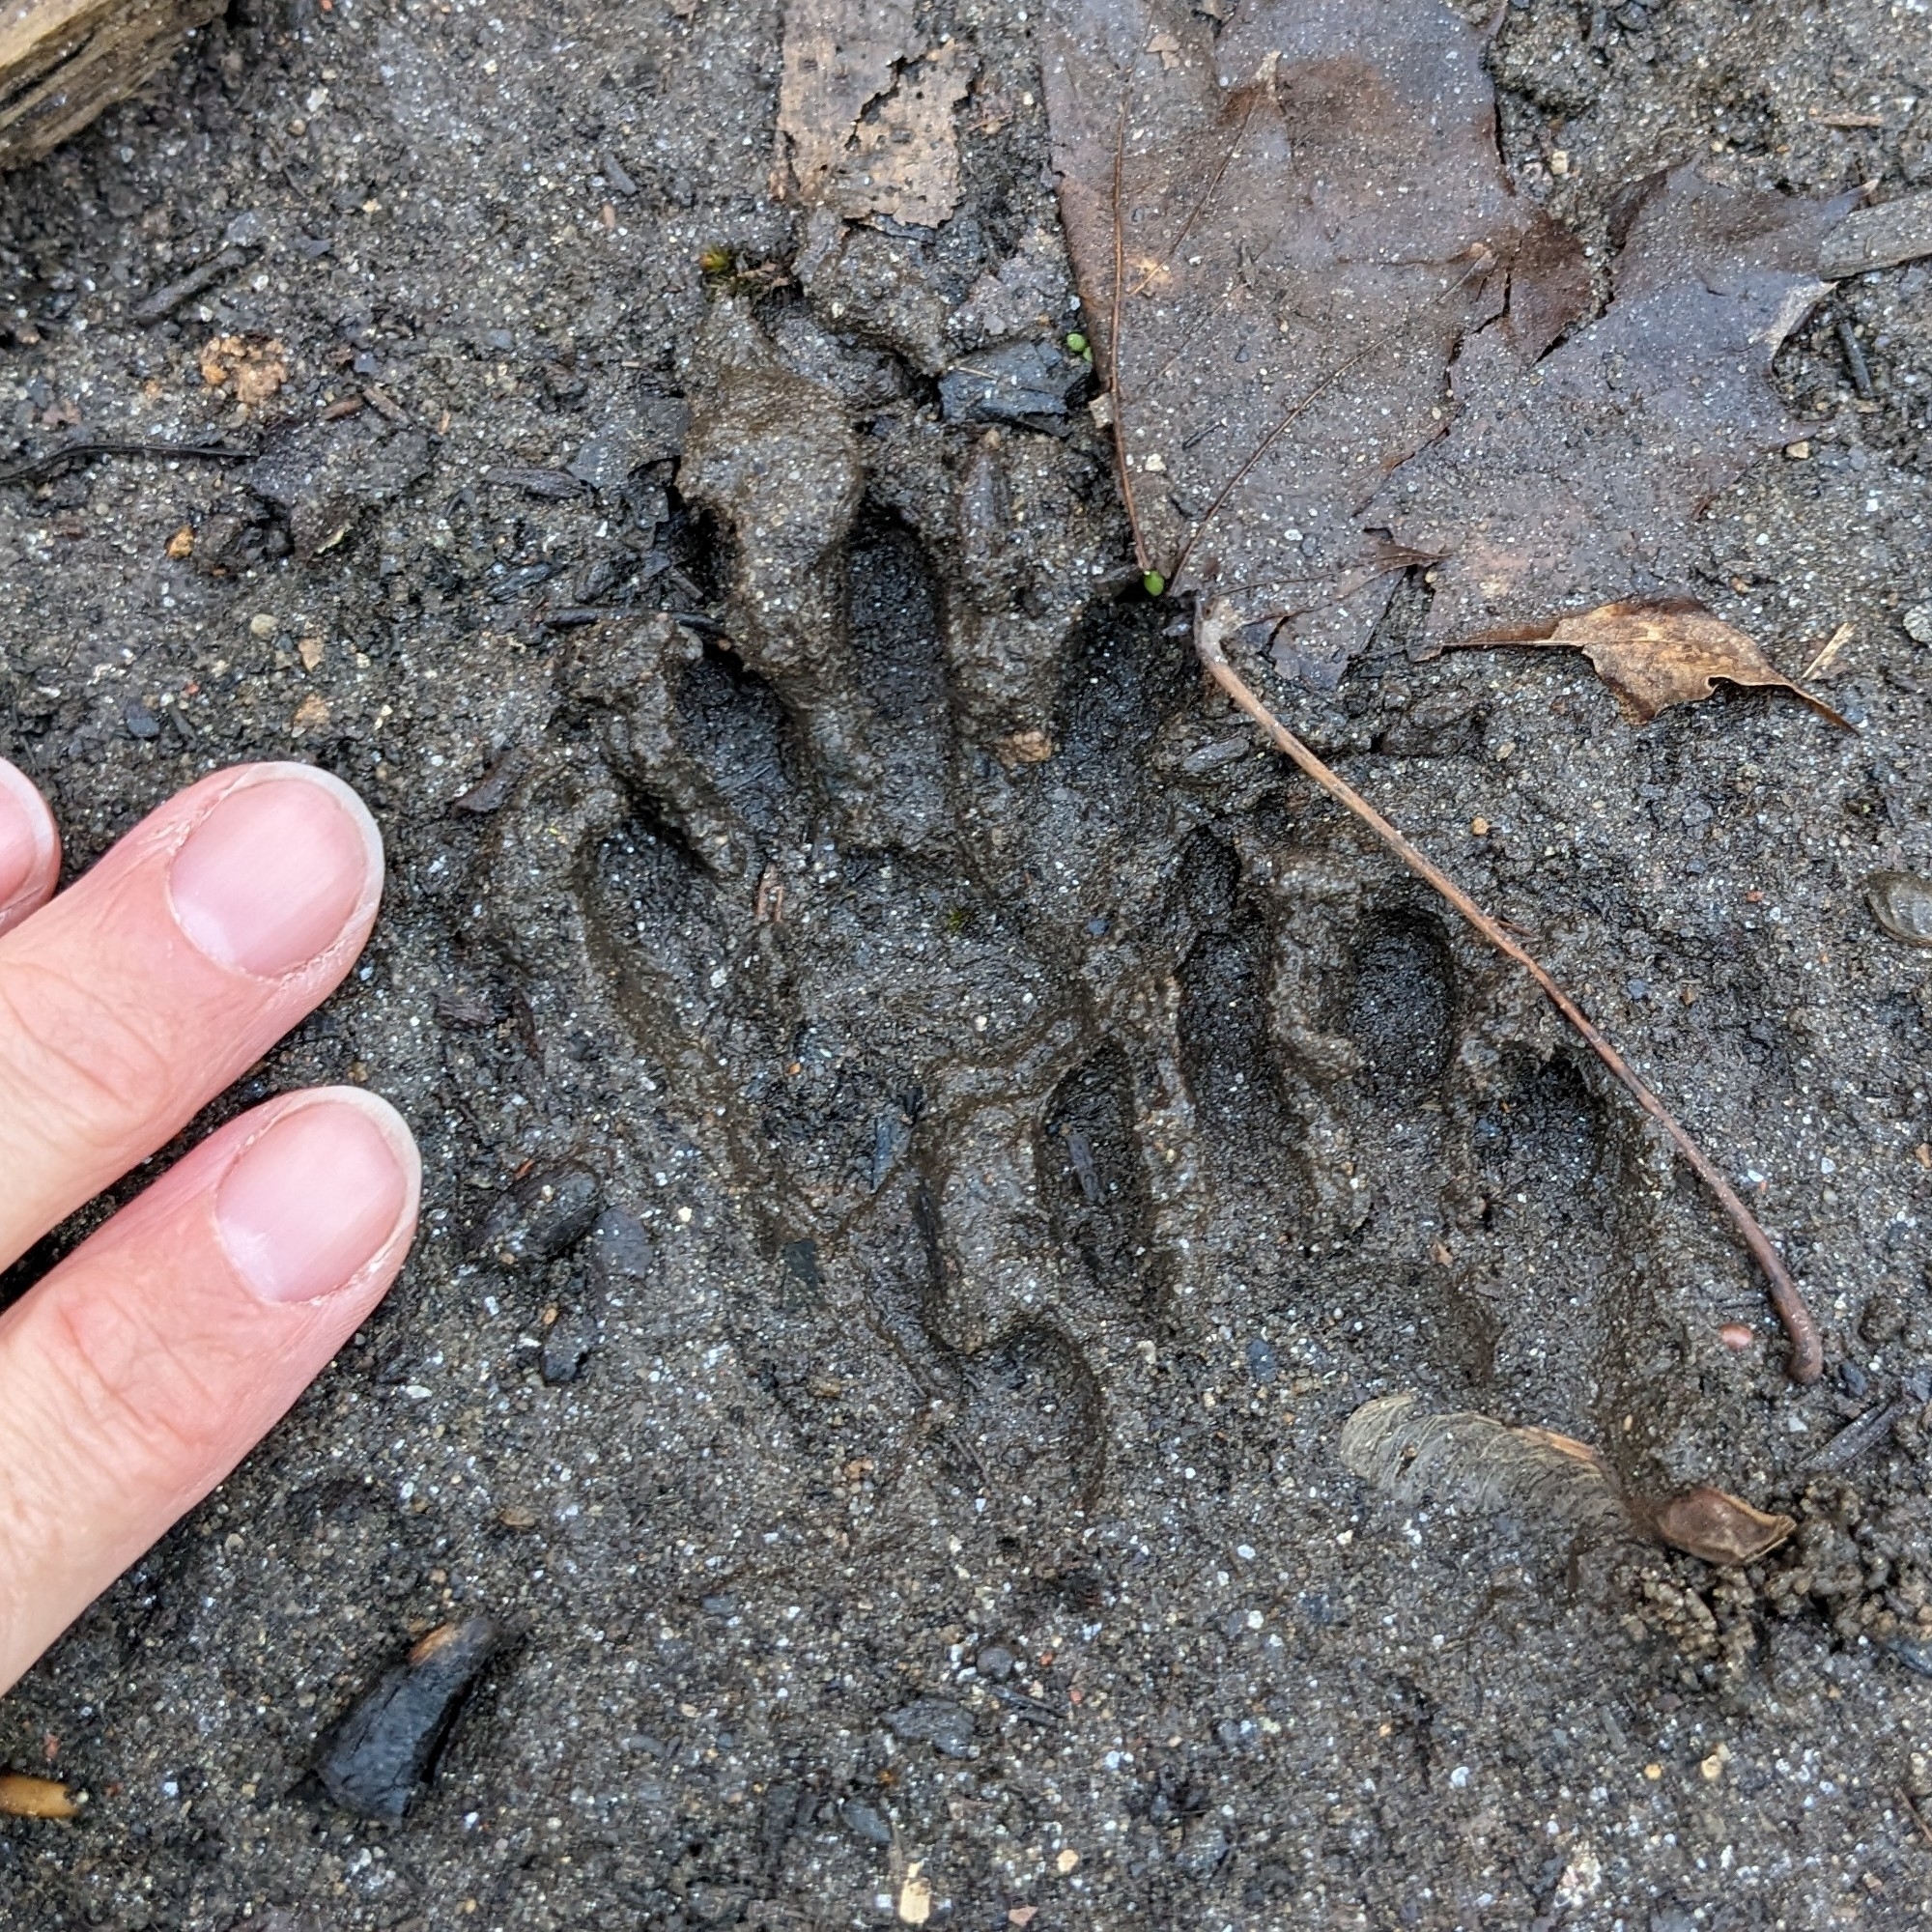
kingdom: Animalia
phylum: Chordata
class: Mammalia
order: Carnivora
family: Procyonidae
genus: Procyon
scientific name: Procyon lotor
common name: Raccoon
